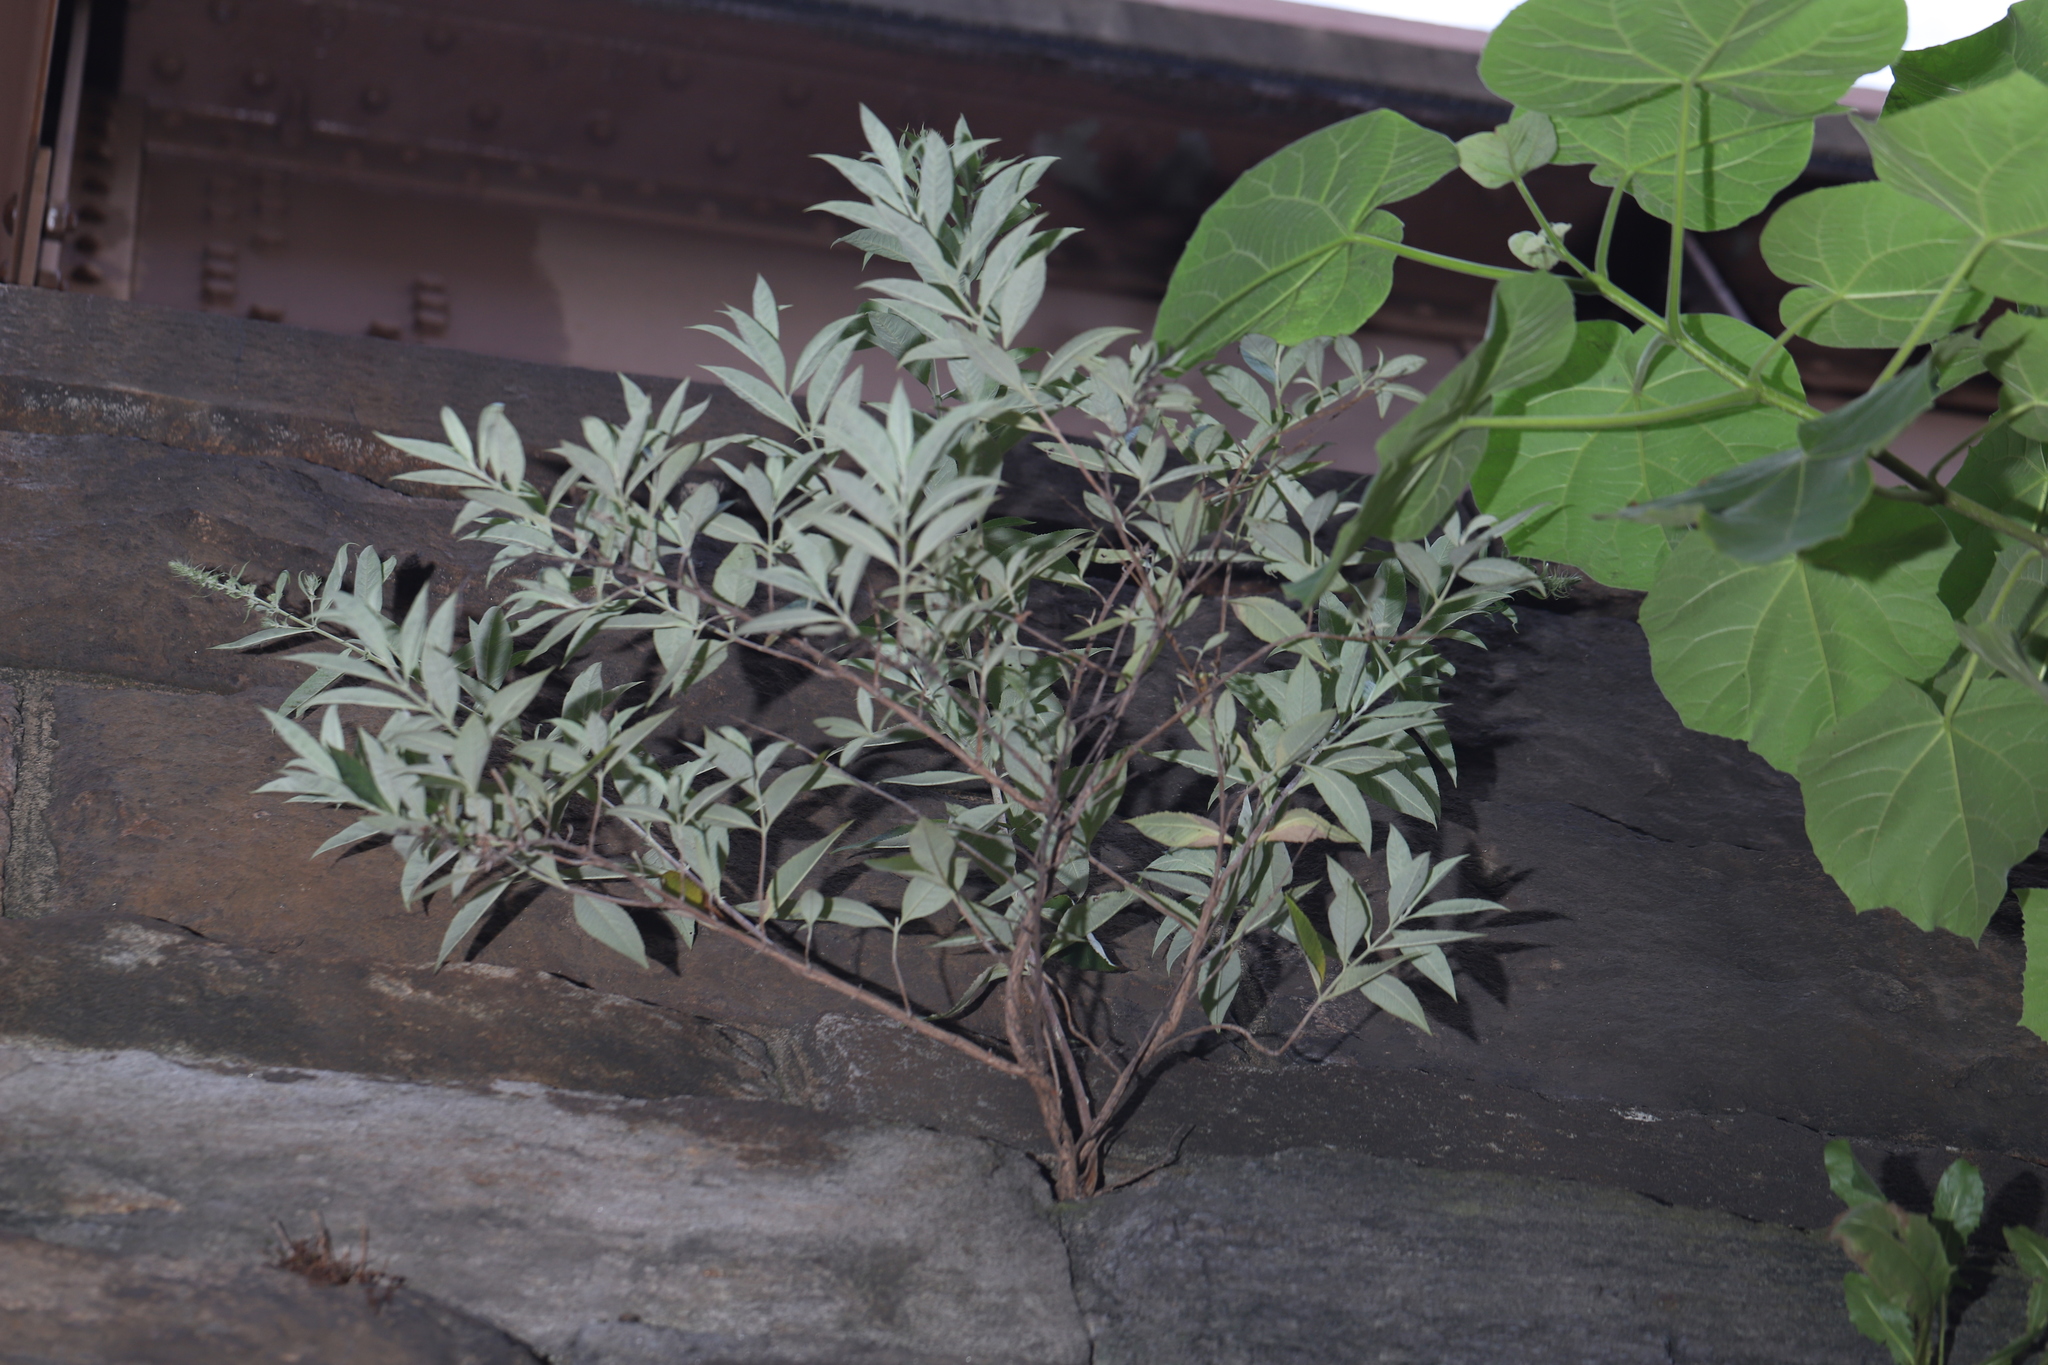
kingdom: Plantae
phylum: Tracheophyta
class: Magnoliopsida
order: Lamiales
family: Scrophulariaceae
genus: Buddleja
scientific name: Buddleja davidii
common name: Butterfly-bush
